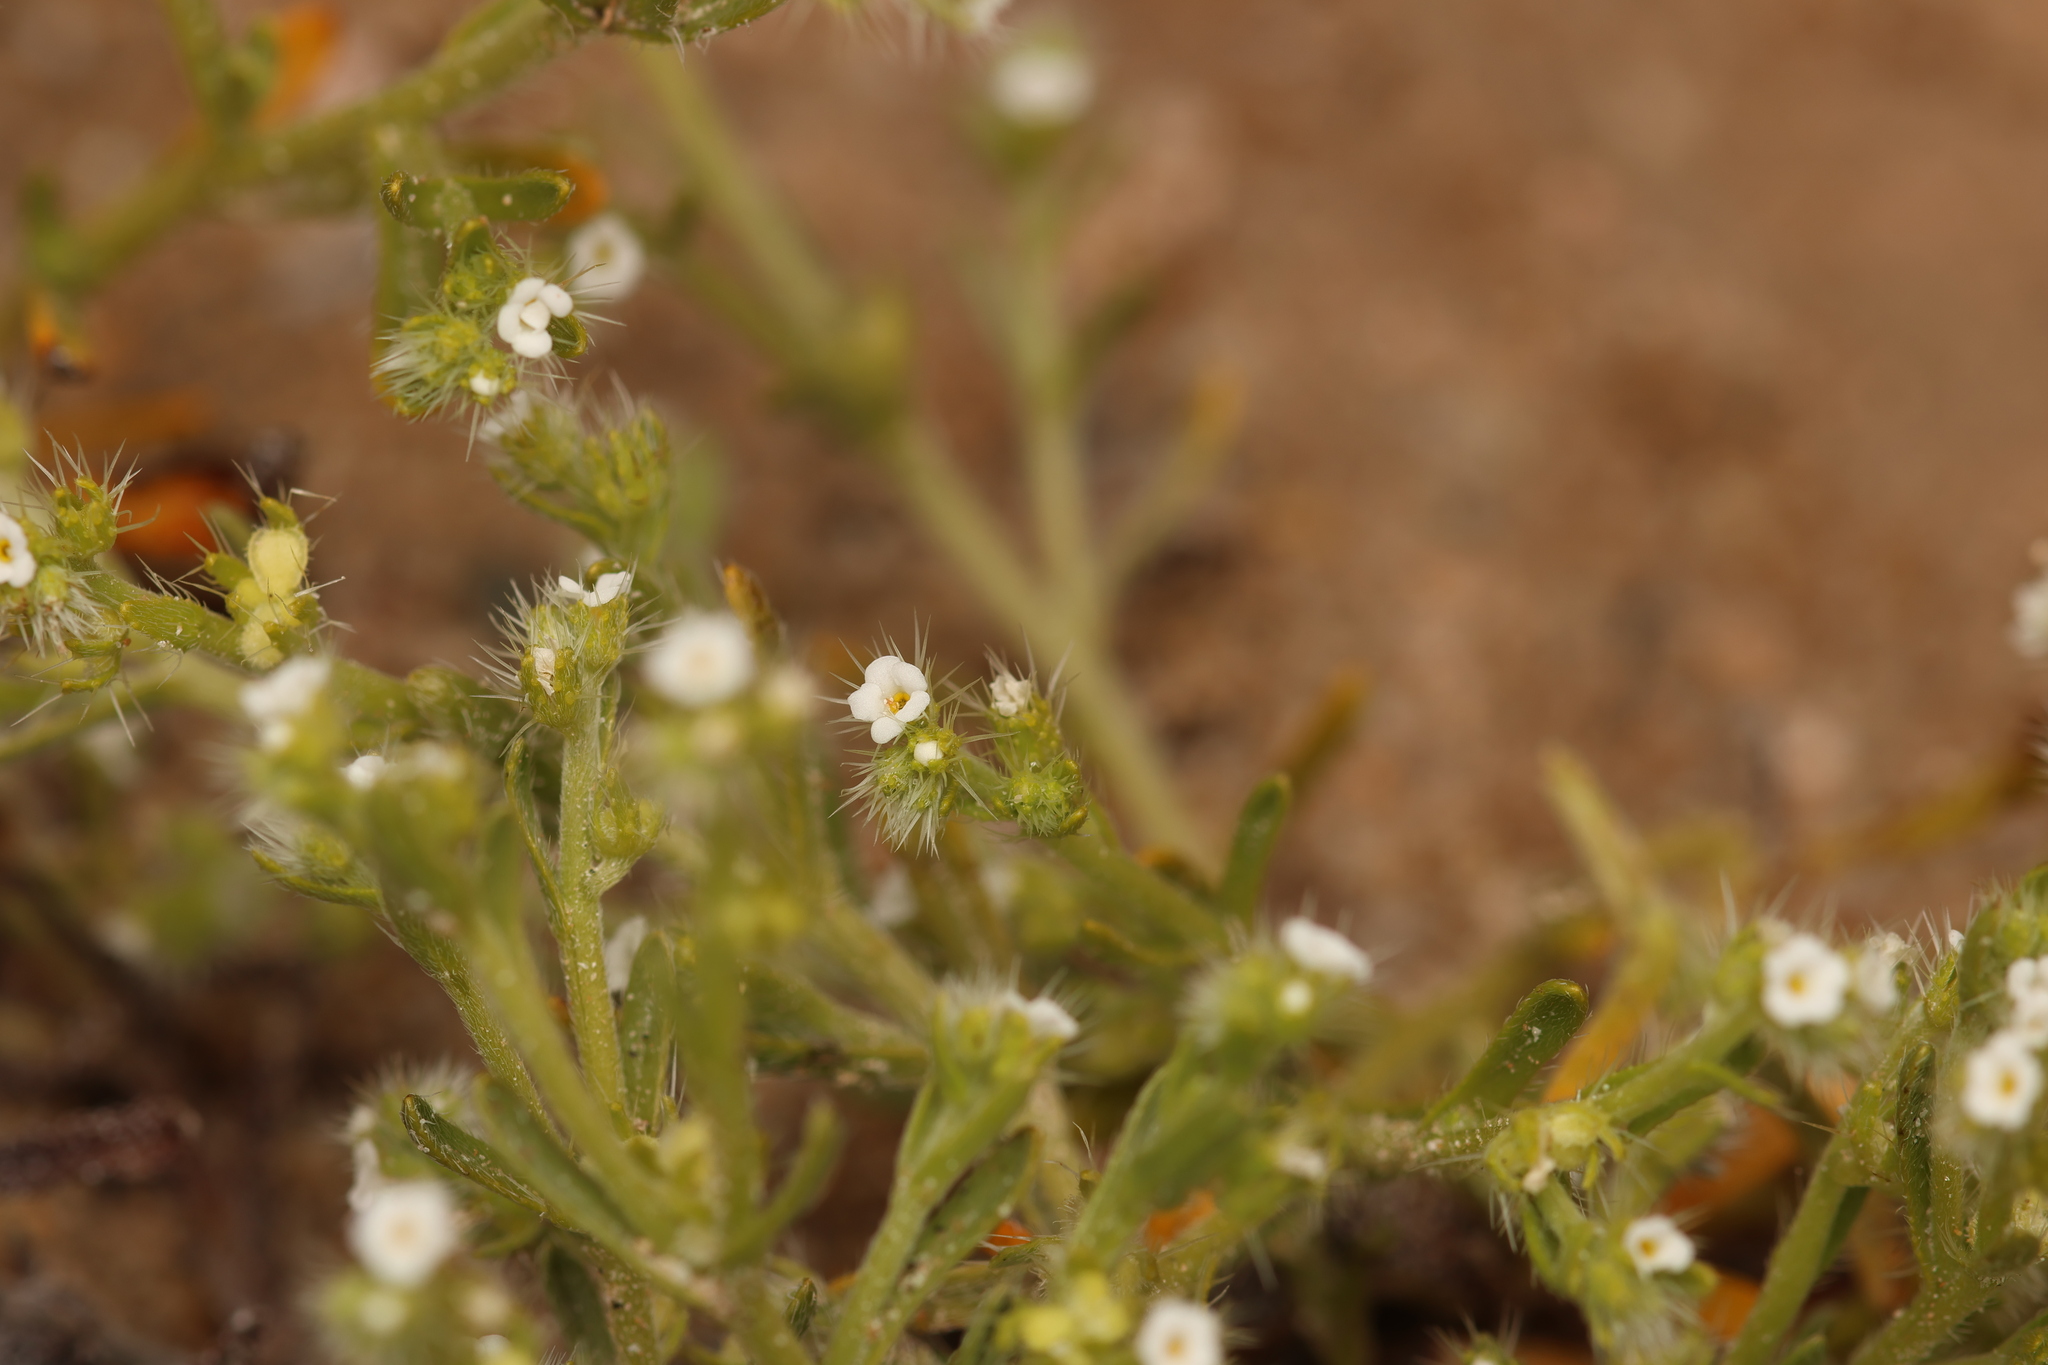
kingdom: Plantae
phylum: Tracheophyta
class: Magnoliopsida
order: Boraginales
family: Boraginaceae
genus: Pectocarya
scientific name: Pectocarya setosa
